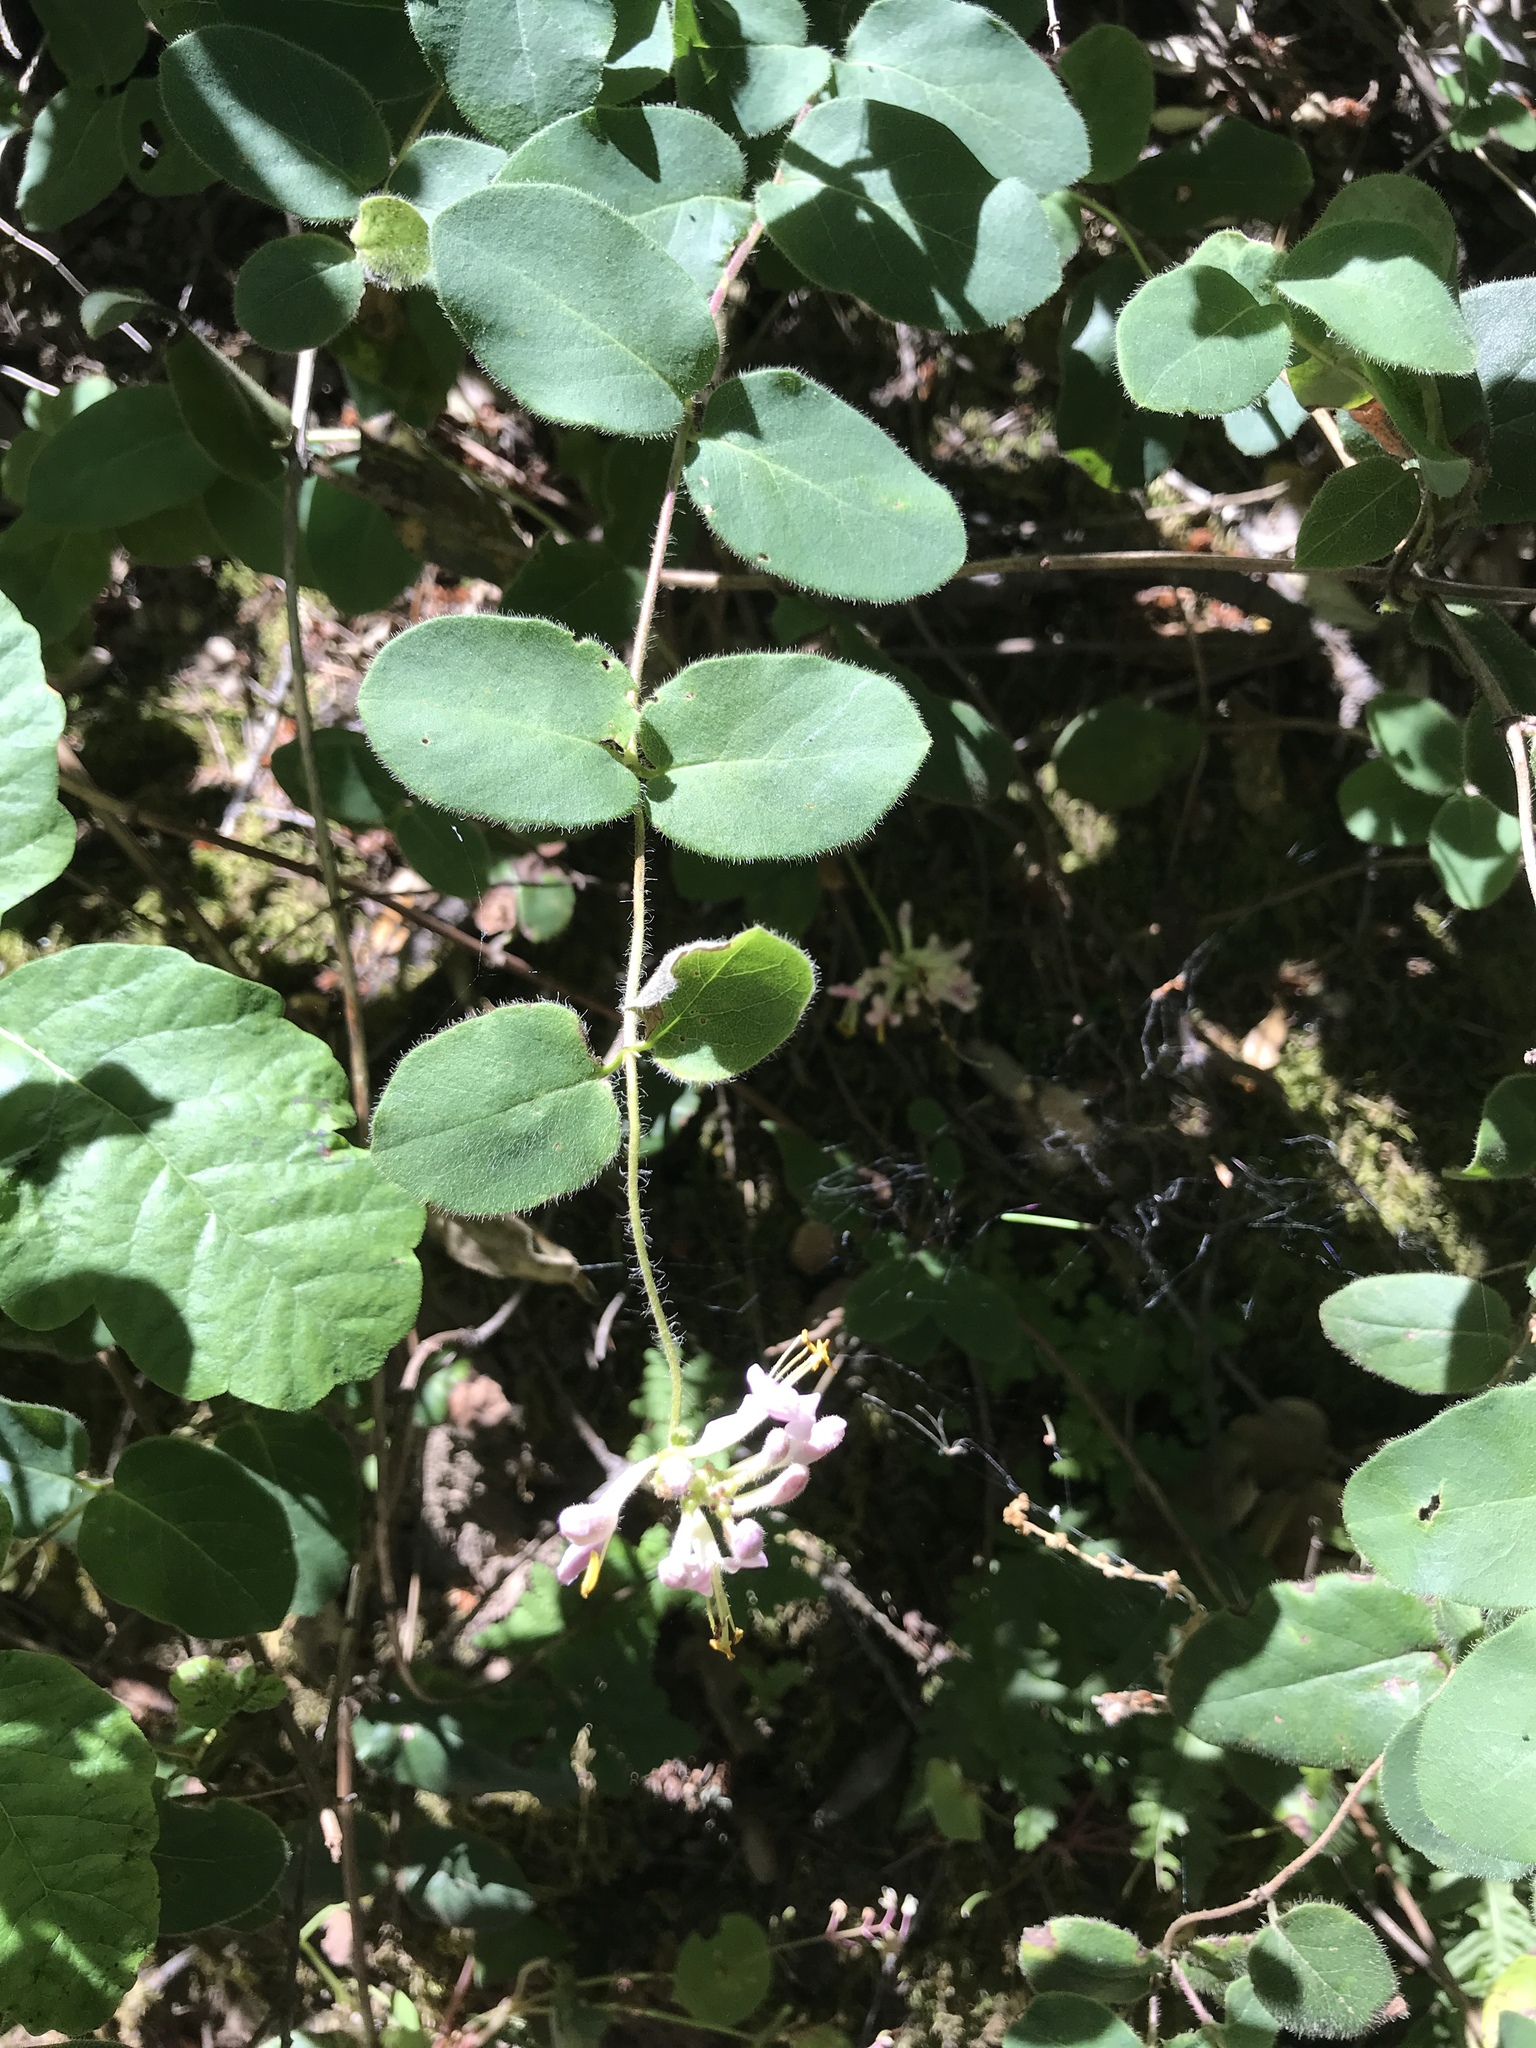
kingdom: Plantae
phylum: Tracheophyta
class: Magnoliopsida
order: Dipsacales
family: Caprifoliaceae
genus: Lonicera
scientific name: Lonicera hispidula
